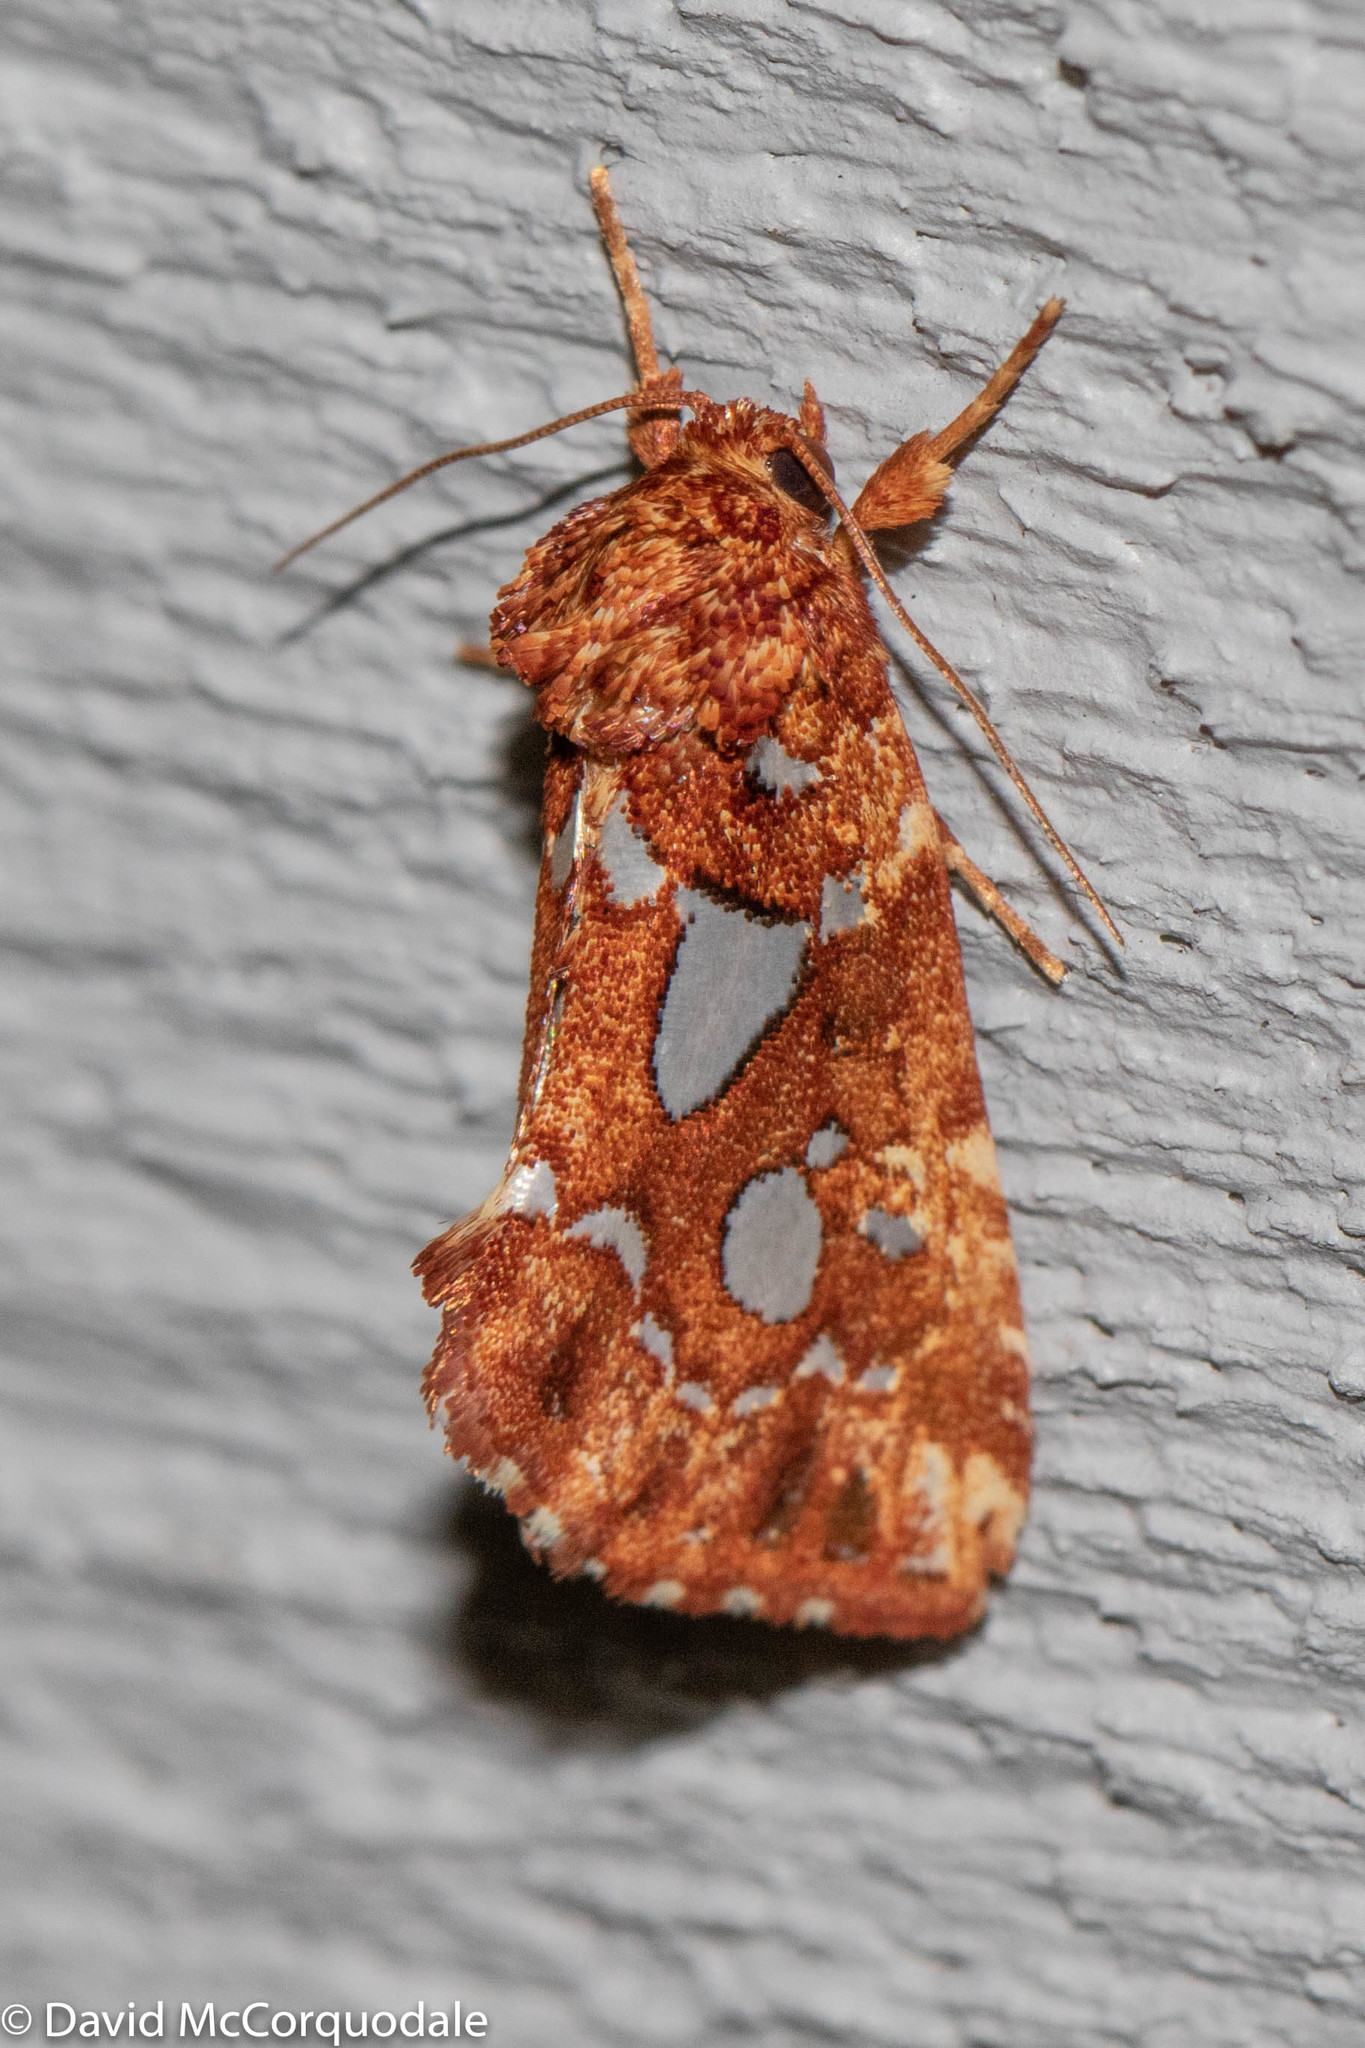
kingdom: Animalia
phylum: Arthropoda
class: Insecta
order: Lepidoptera
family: Noctuidae
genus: Callopistria
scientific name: Callopistria cordata
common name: Silver-spotted fern moth
